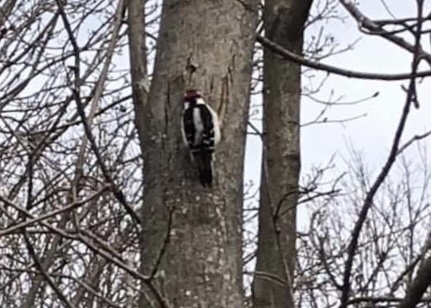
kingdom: Animalia
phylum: Chordata
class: Aves
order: Piciformes
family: Picidae
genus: Dryobates
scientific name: Dryobates pubescens
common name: Downy woodpecker
